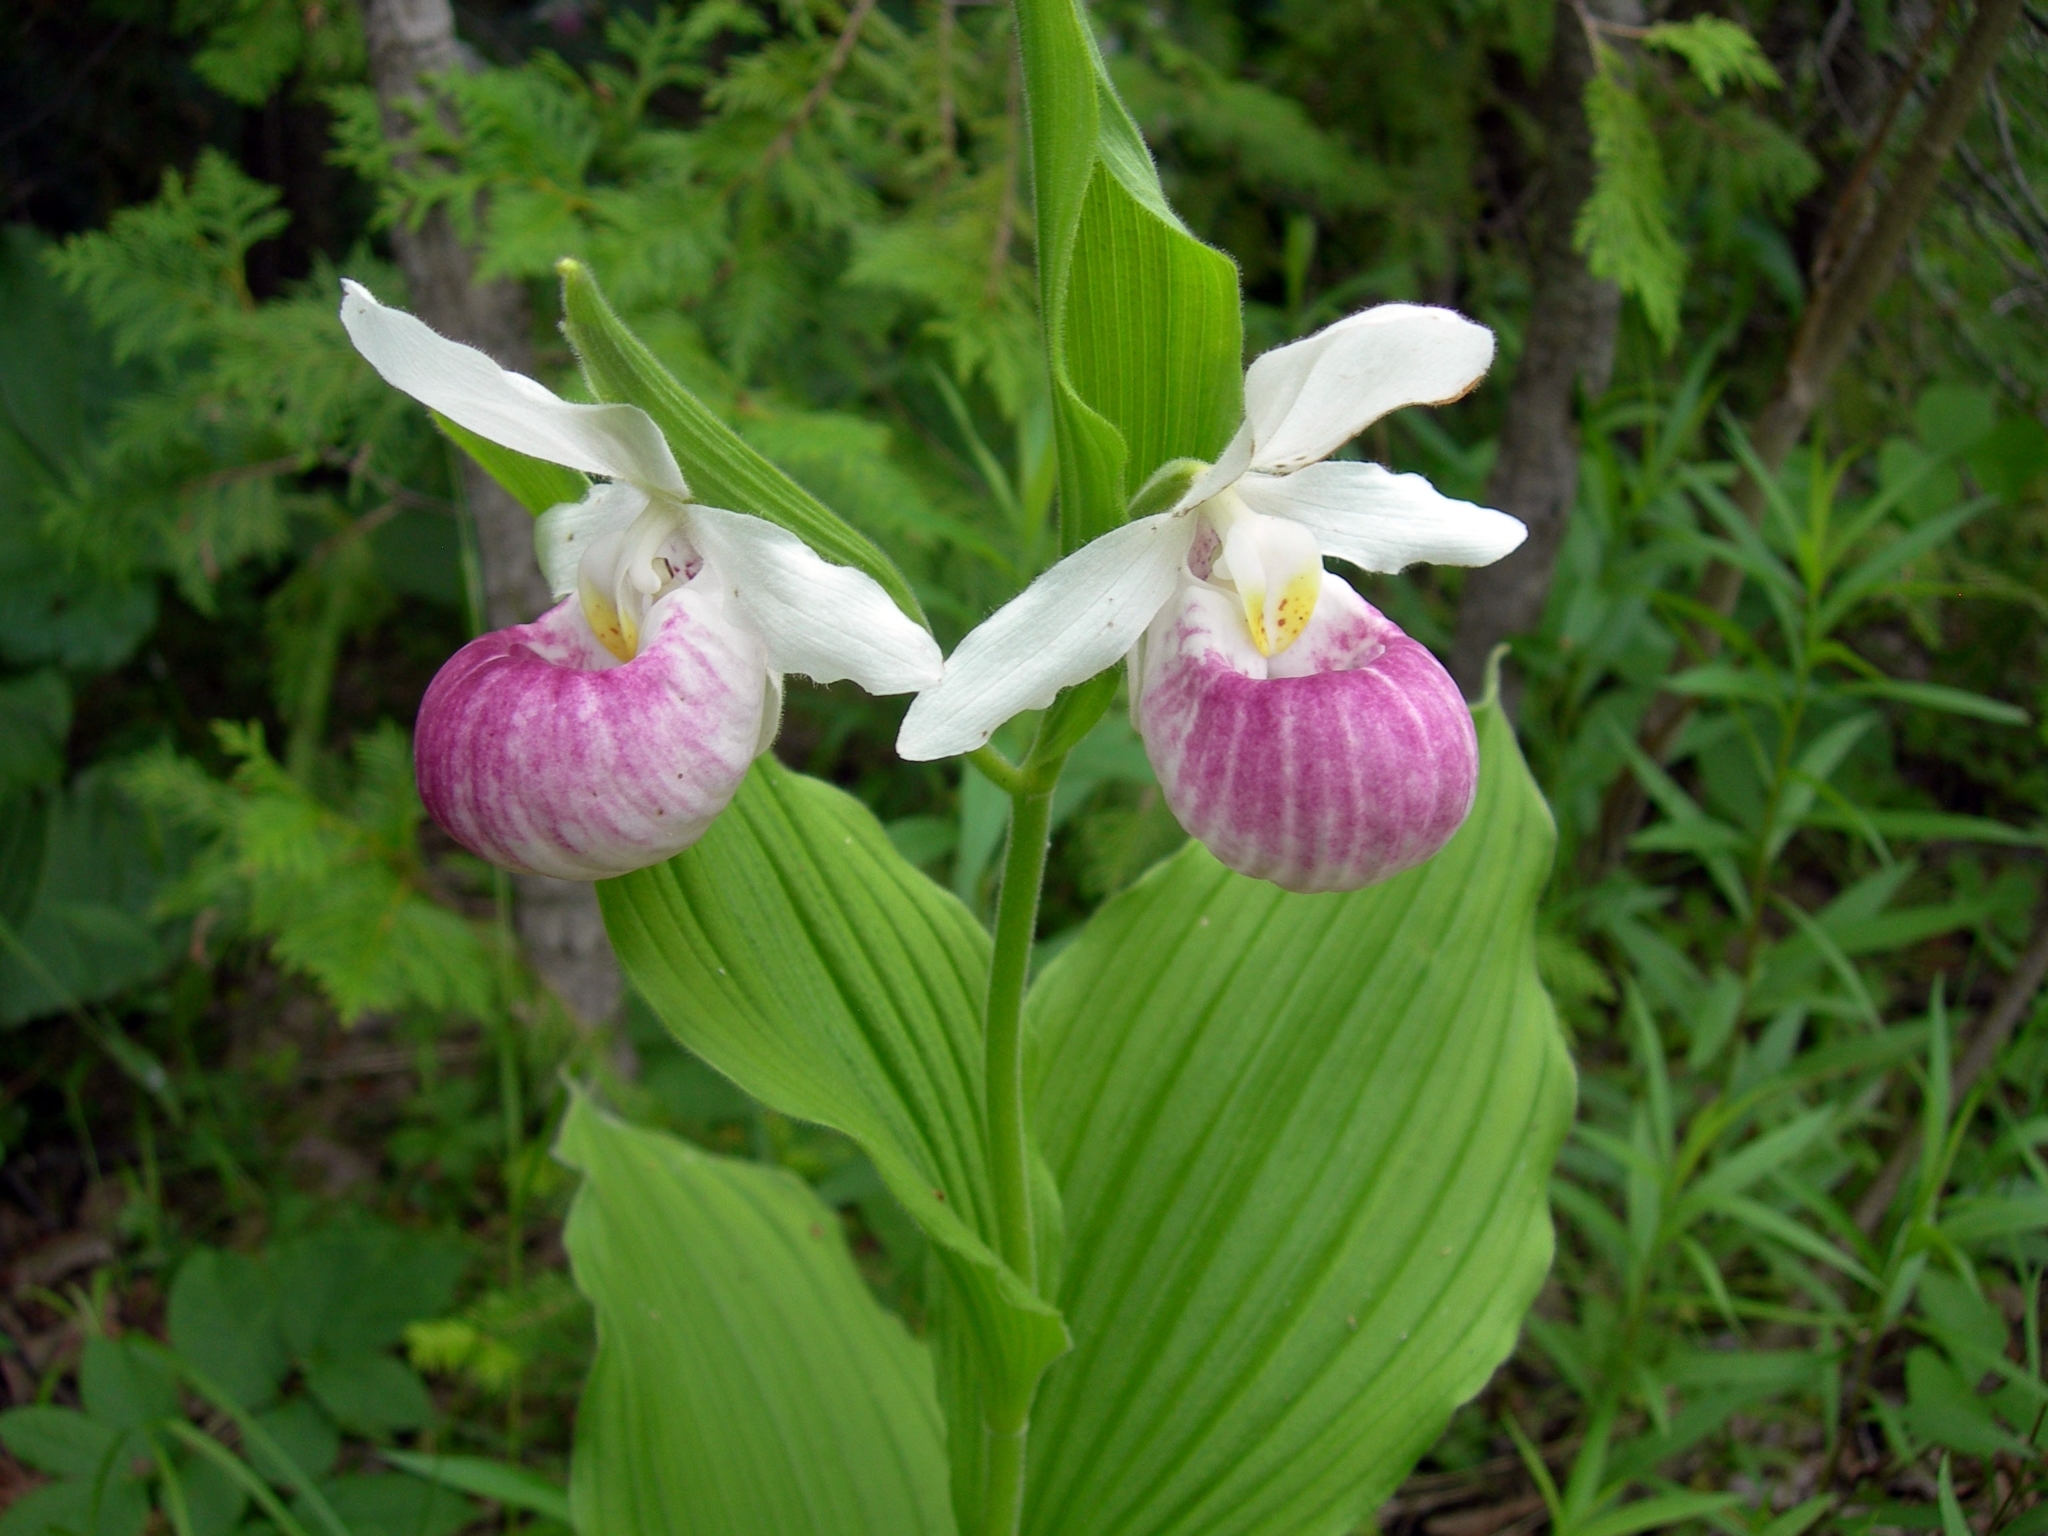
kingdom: Plantae
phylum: Tracheophyta
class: Liliopsida
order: Asparagales
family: Orchidaceae
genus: Cypripedium
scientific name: Cypripedium reginae
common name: Queen lady's-slipper
